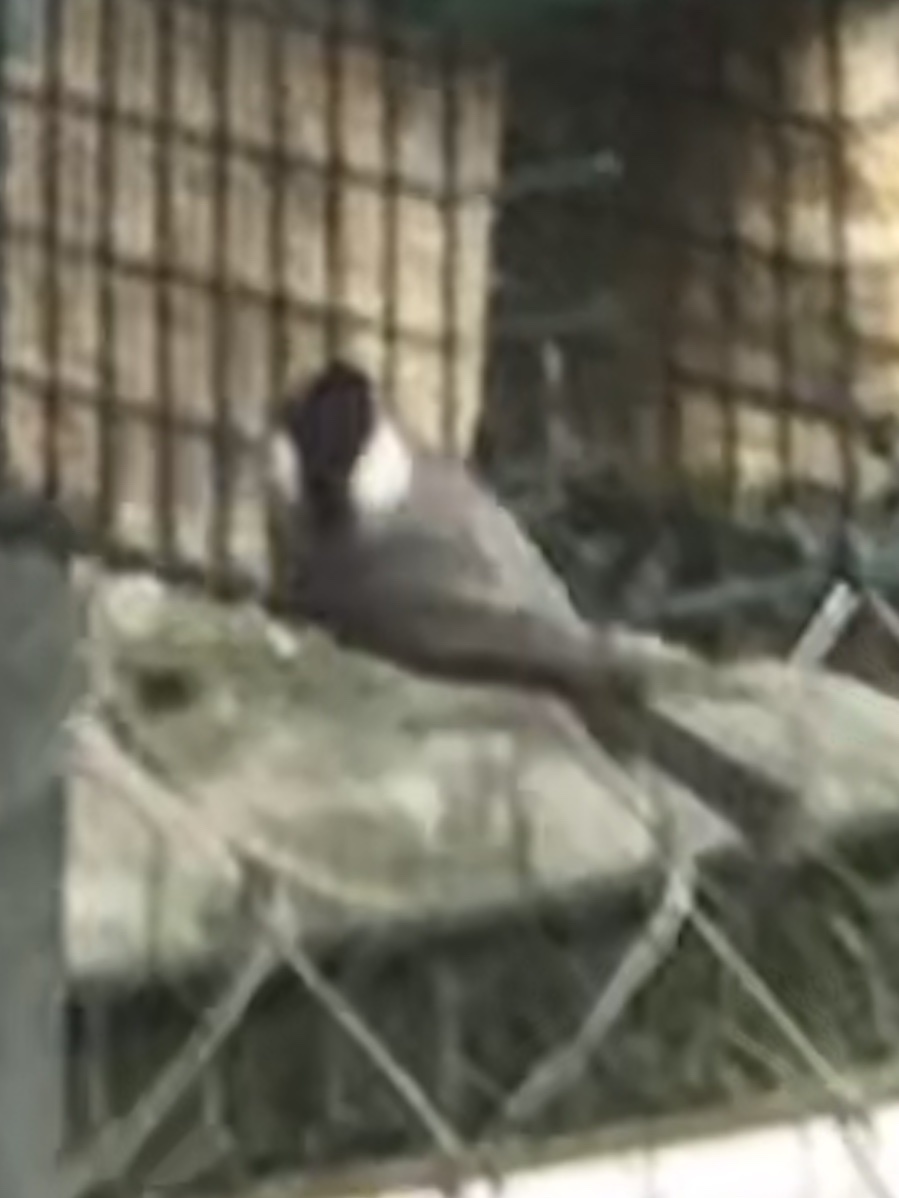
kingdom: Animalia
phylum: Chordata
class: Aves
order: Passeriformes
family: Paridae
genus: Poecile
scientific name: Poecile carolinensis
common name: Carolina chickadee
